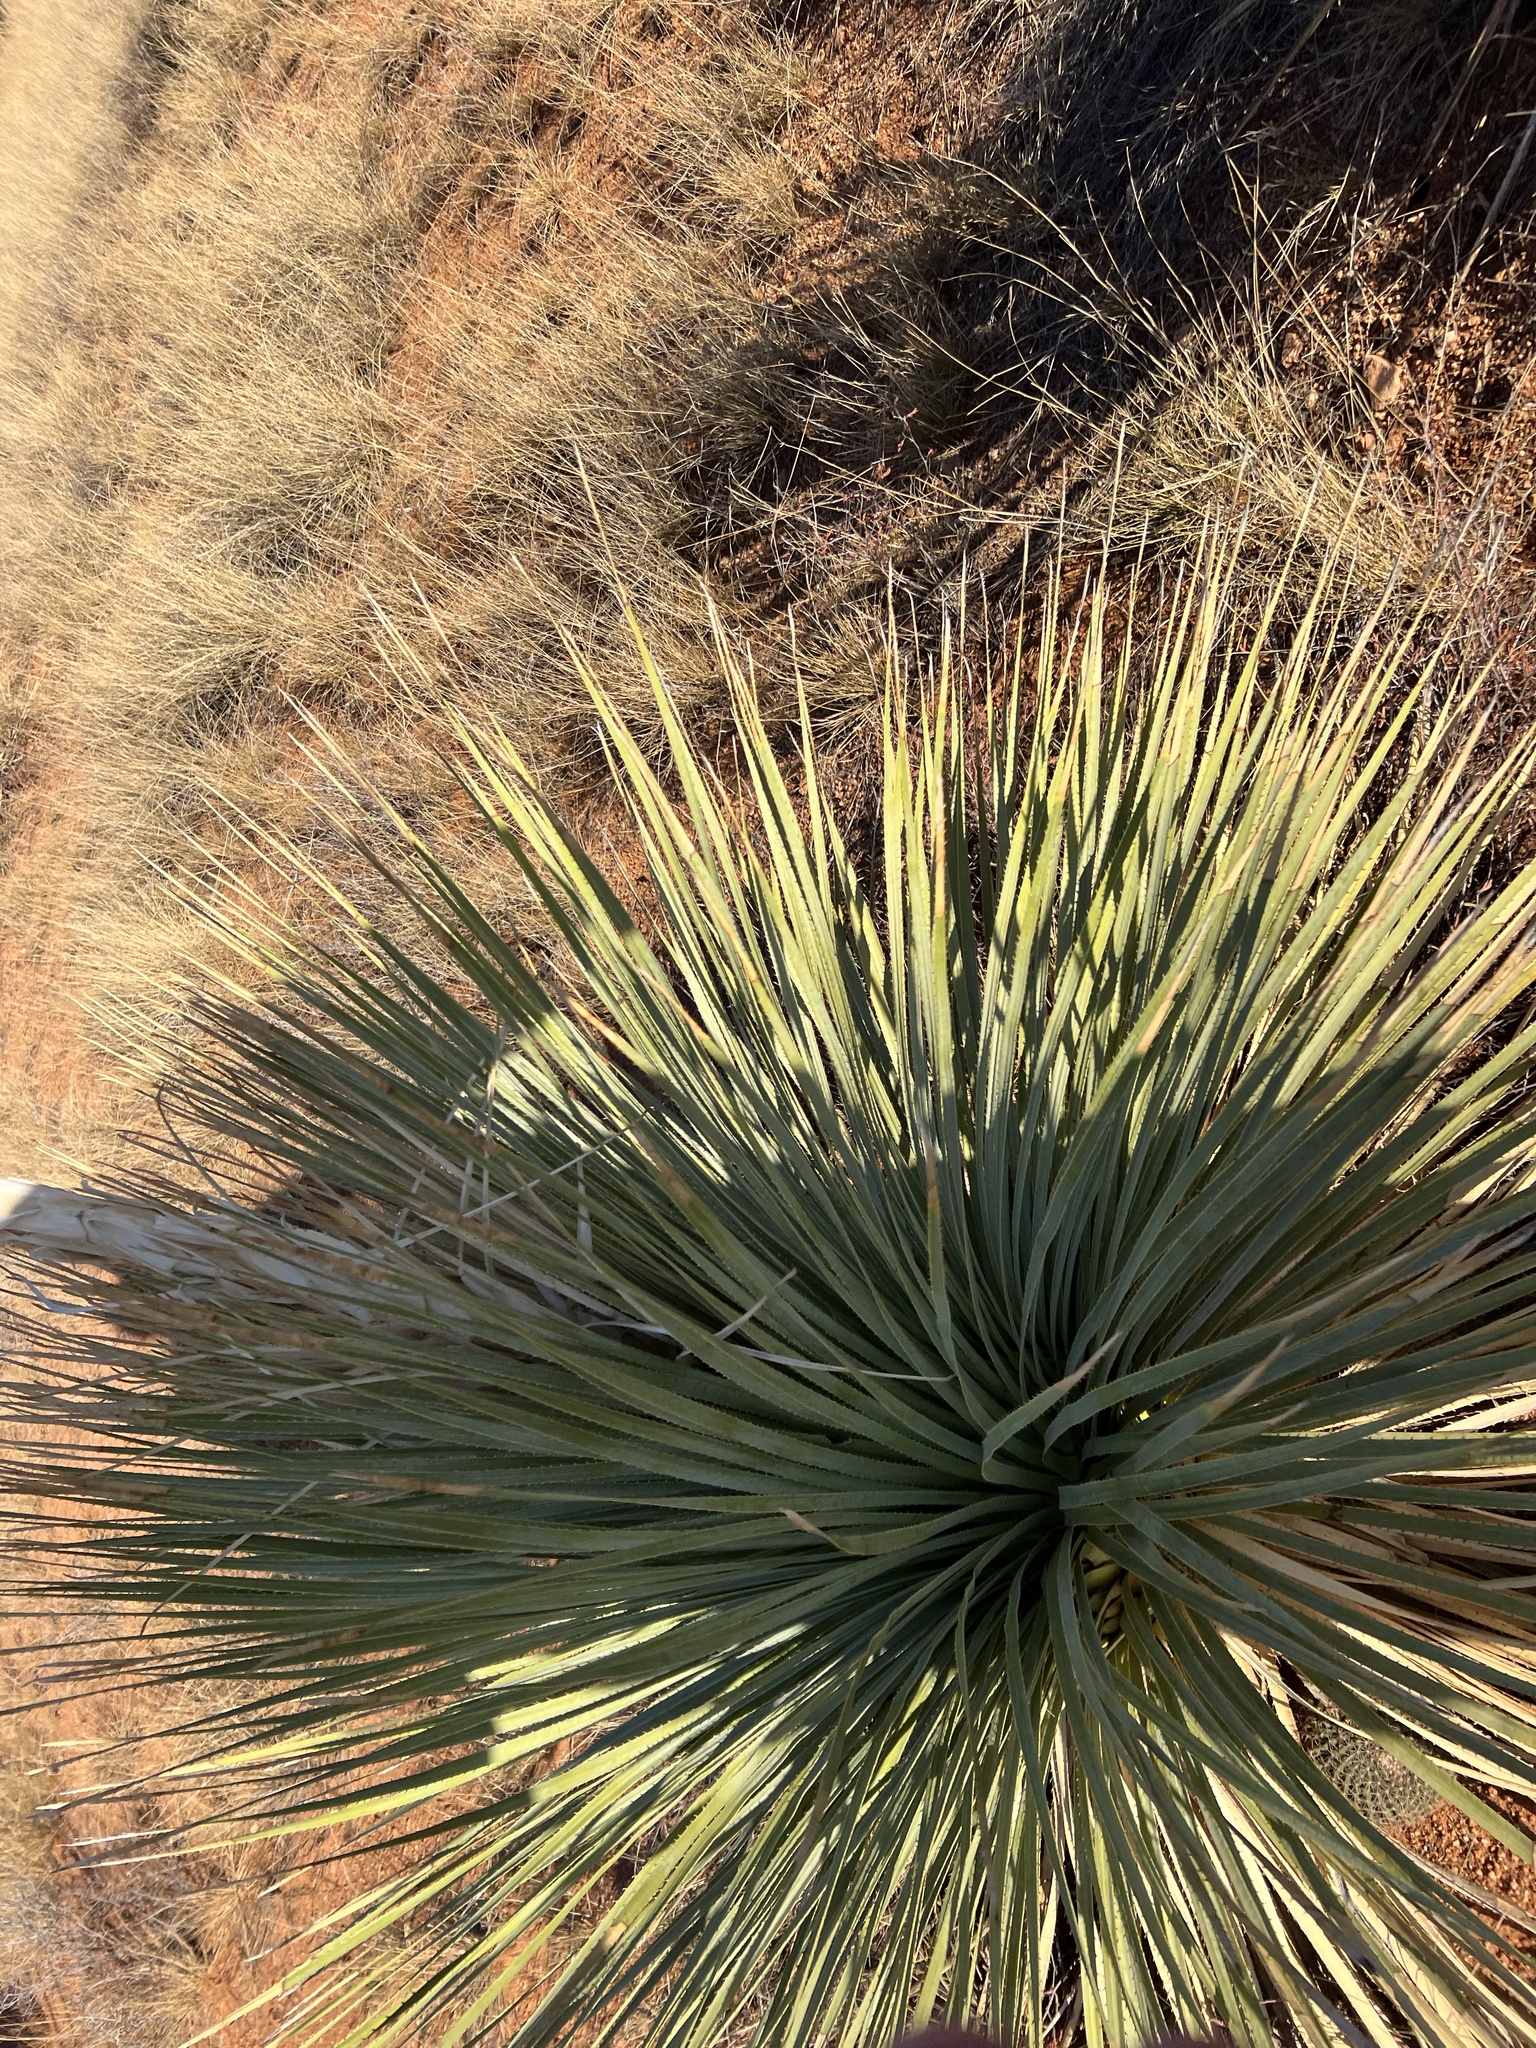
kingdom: Plantae
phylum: Tracheophyta
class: Liliopsida
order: Asparagales
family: Asparagaceae
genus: Dasylirion
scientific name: Dasylirion wheeleri
